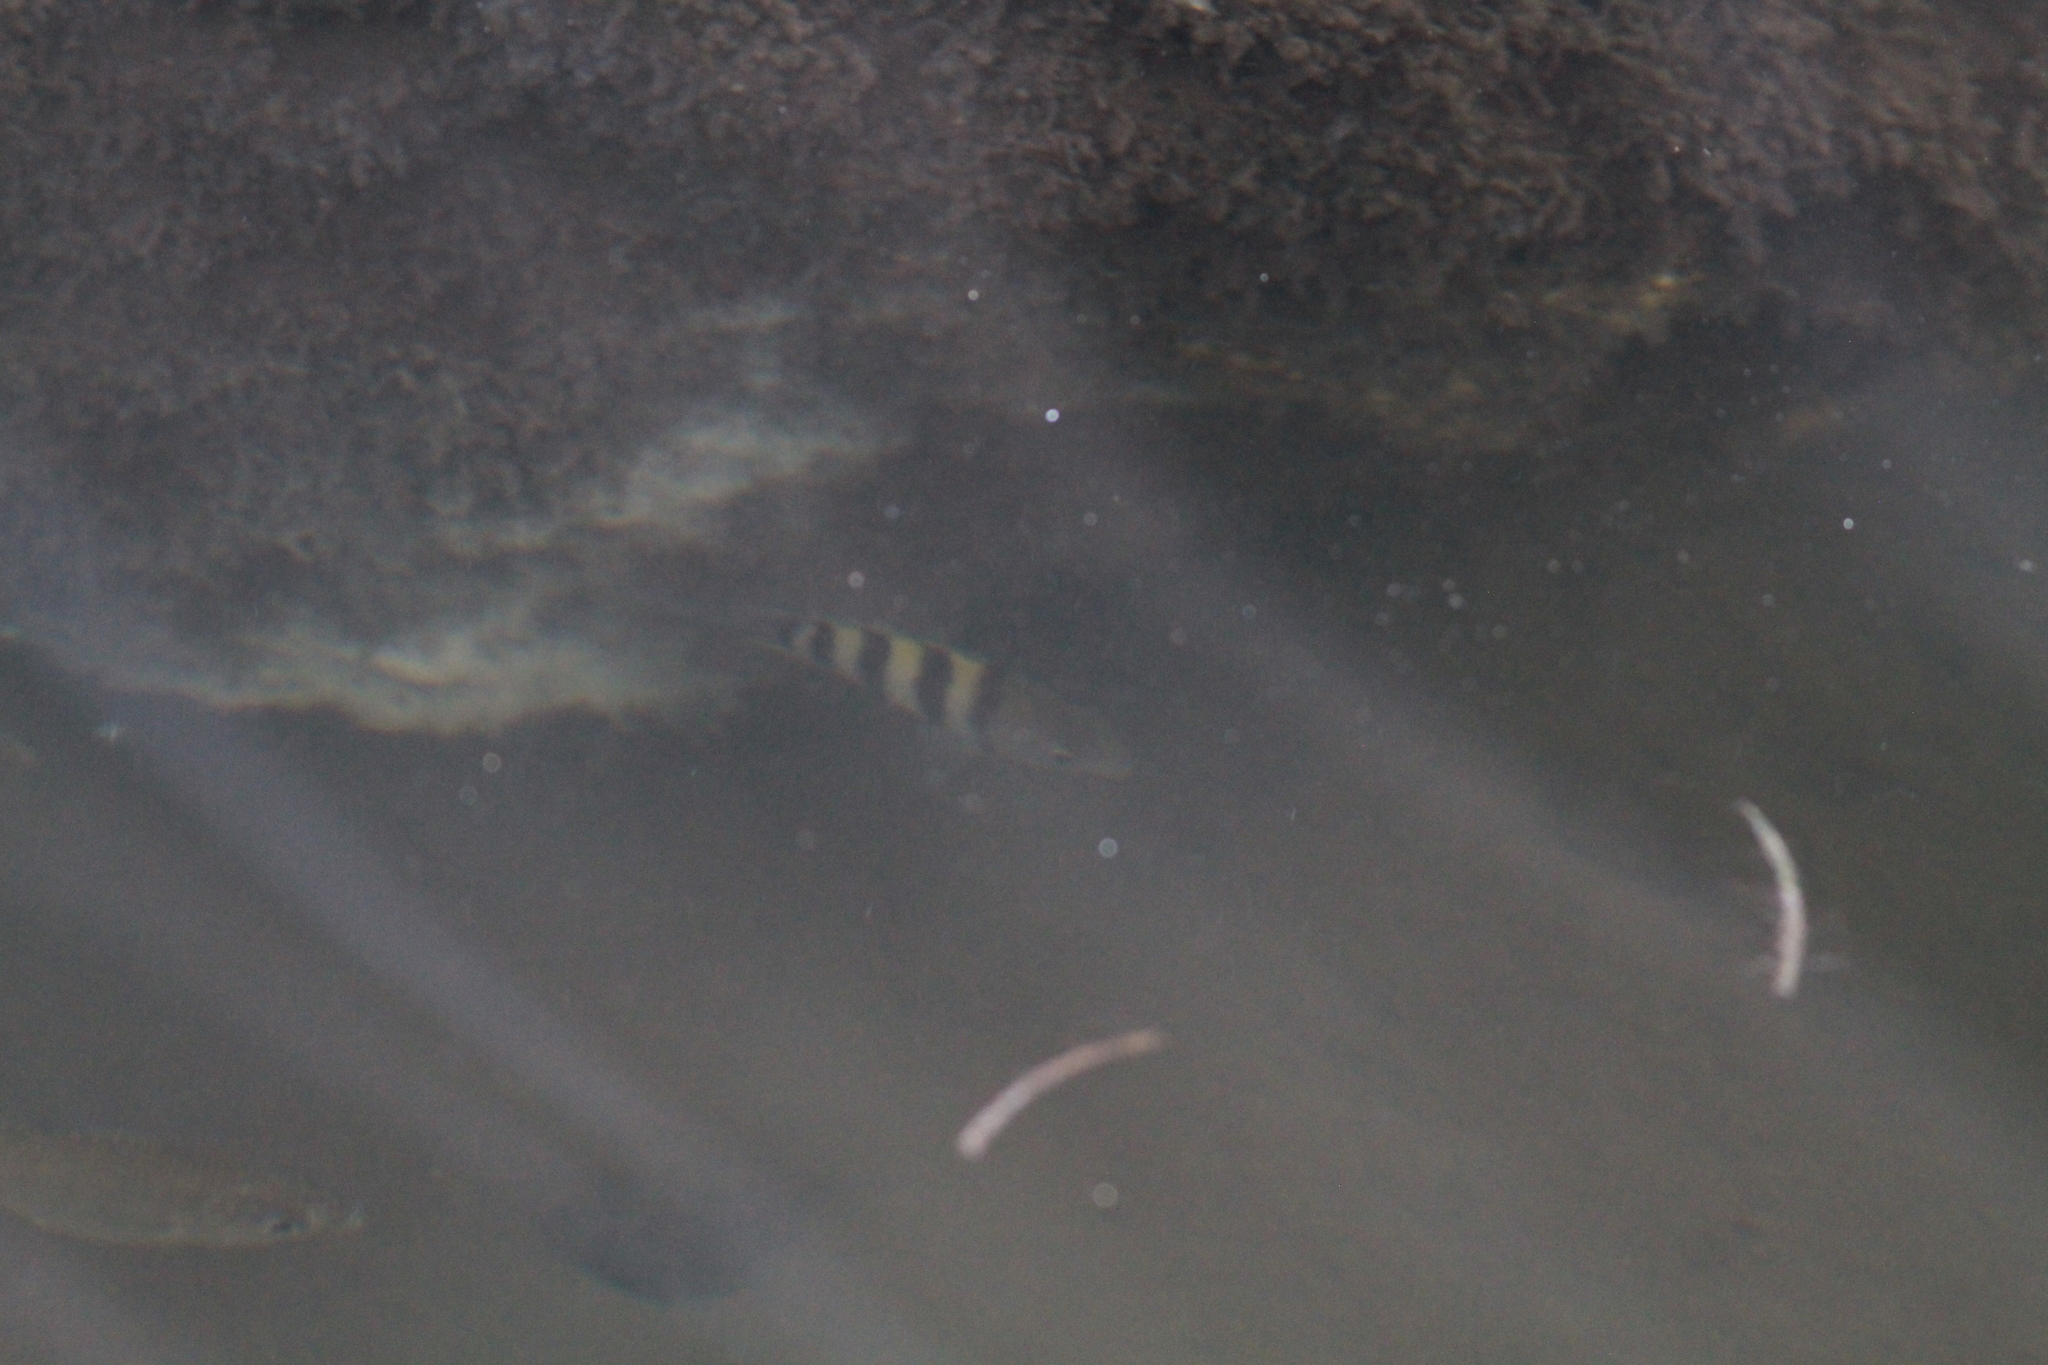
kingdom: Animalia
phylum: Chordata
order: Perciformes
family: Pomacentridae
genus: Abudefduf
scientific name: Abudefduf saxatilis
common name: Sergeant major
